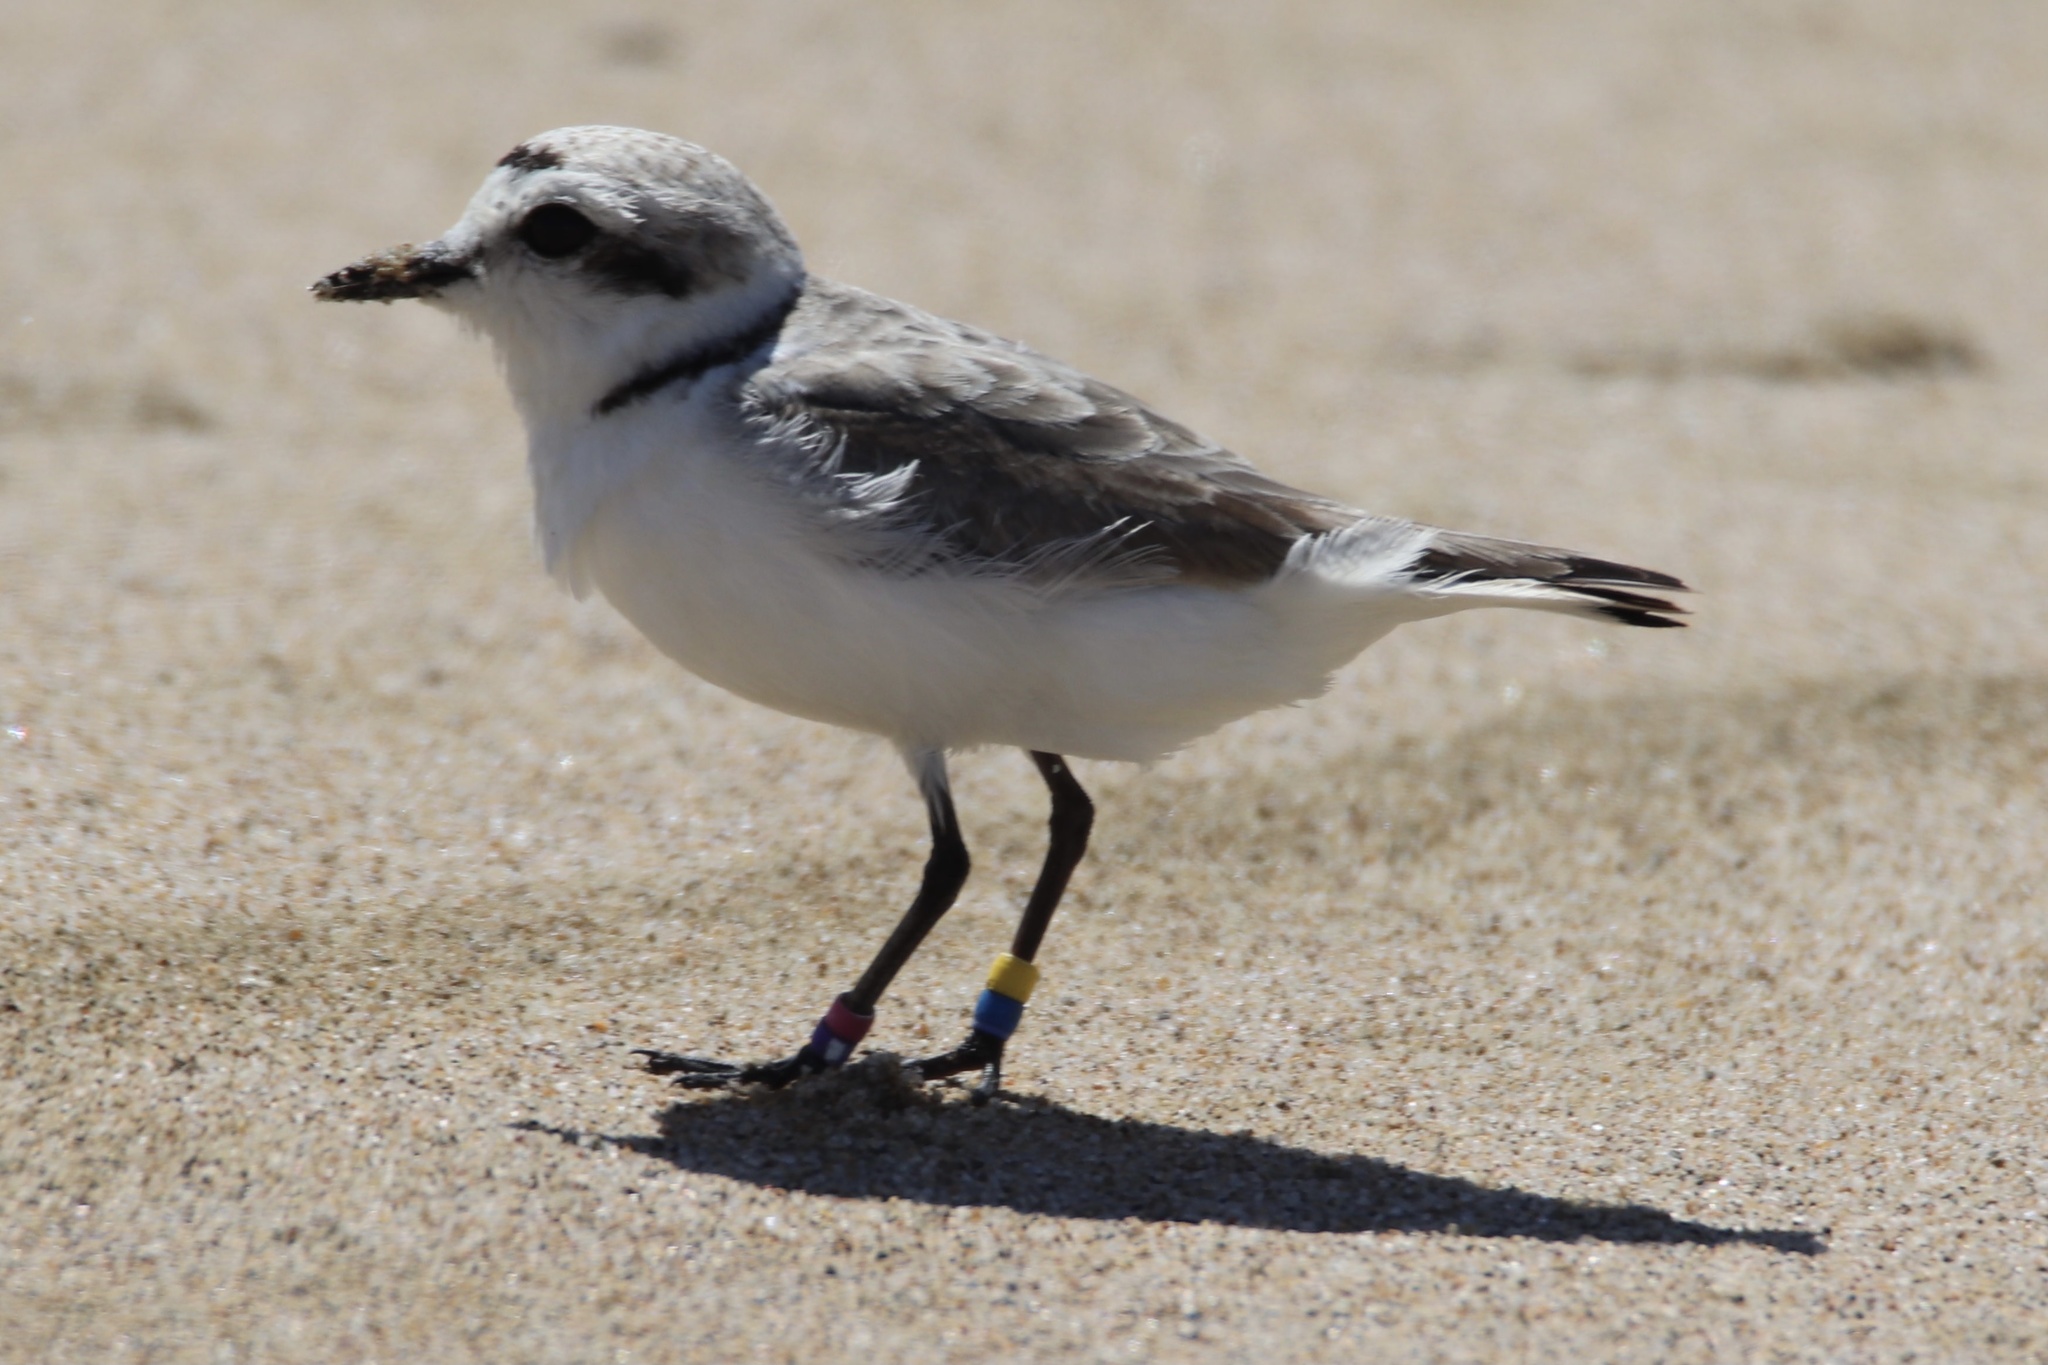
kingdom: Animalia
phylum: Chordata
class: Aves
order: Charadriiformes
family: Charadriidae
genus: Anarhynchus
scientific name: Anarhynchus
